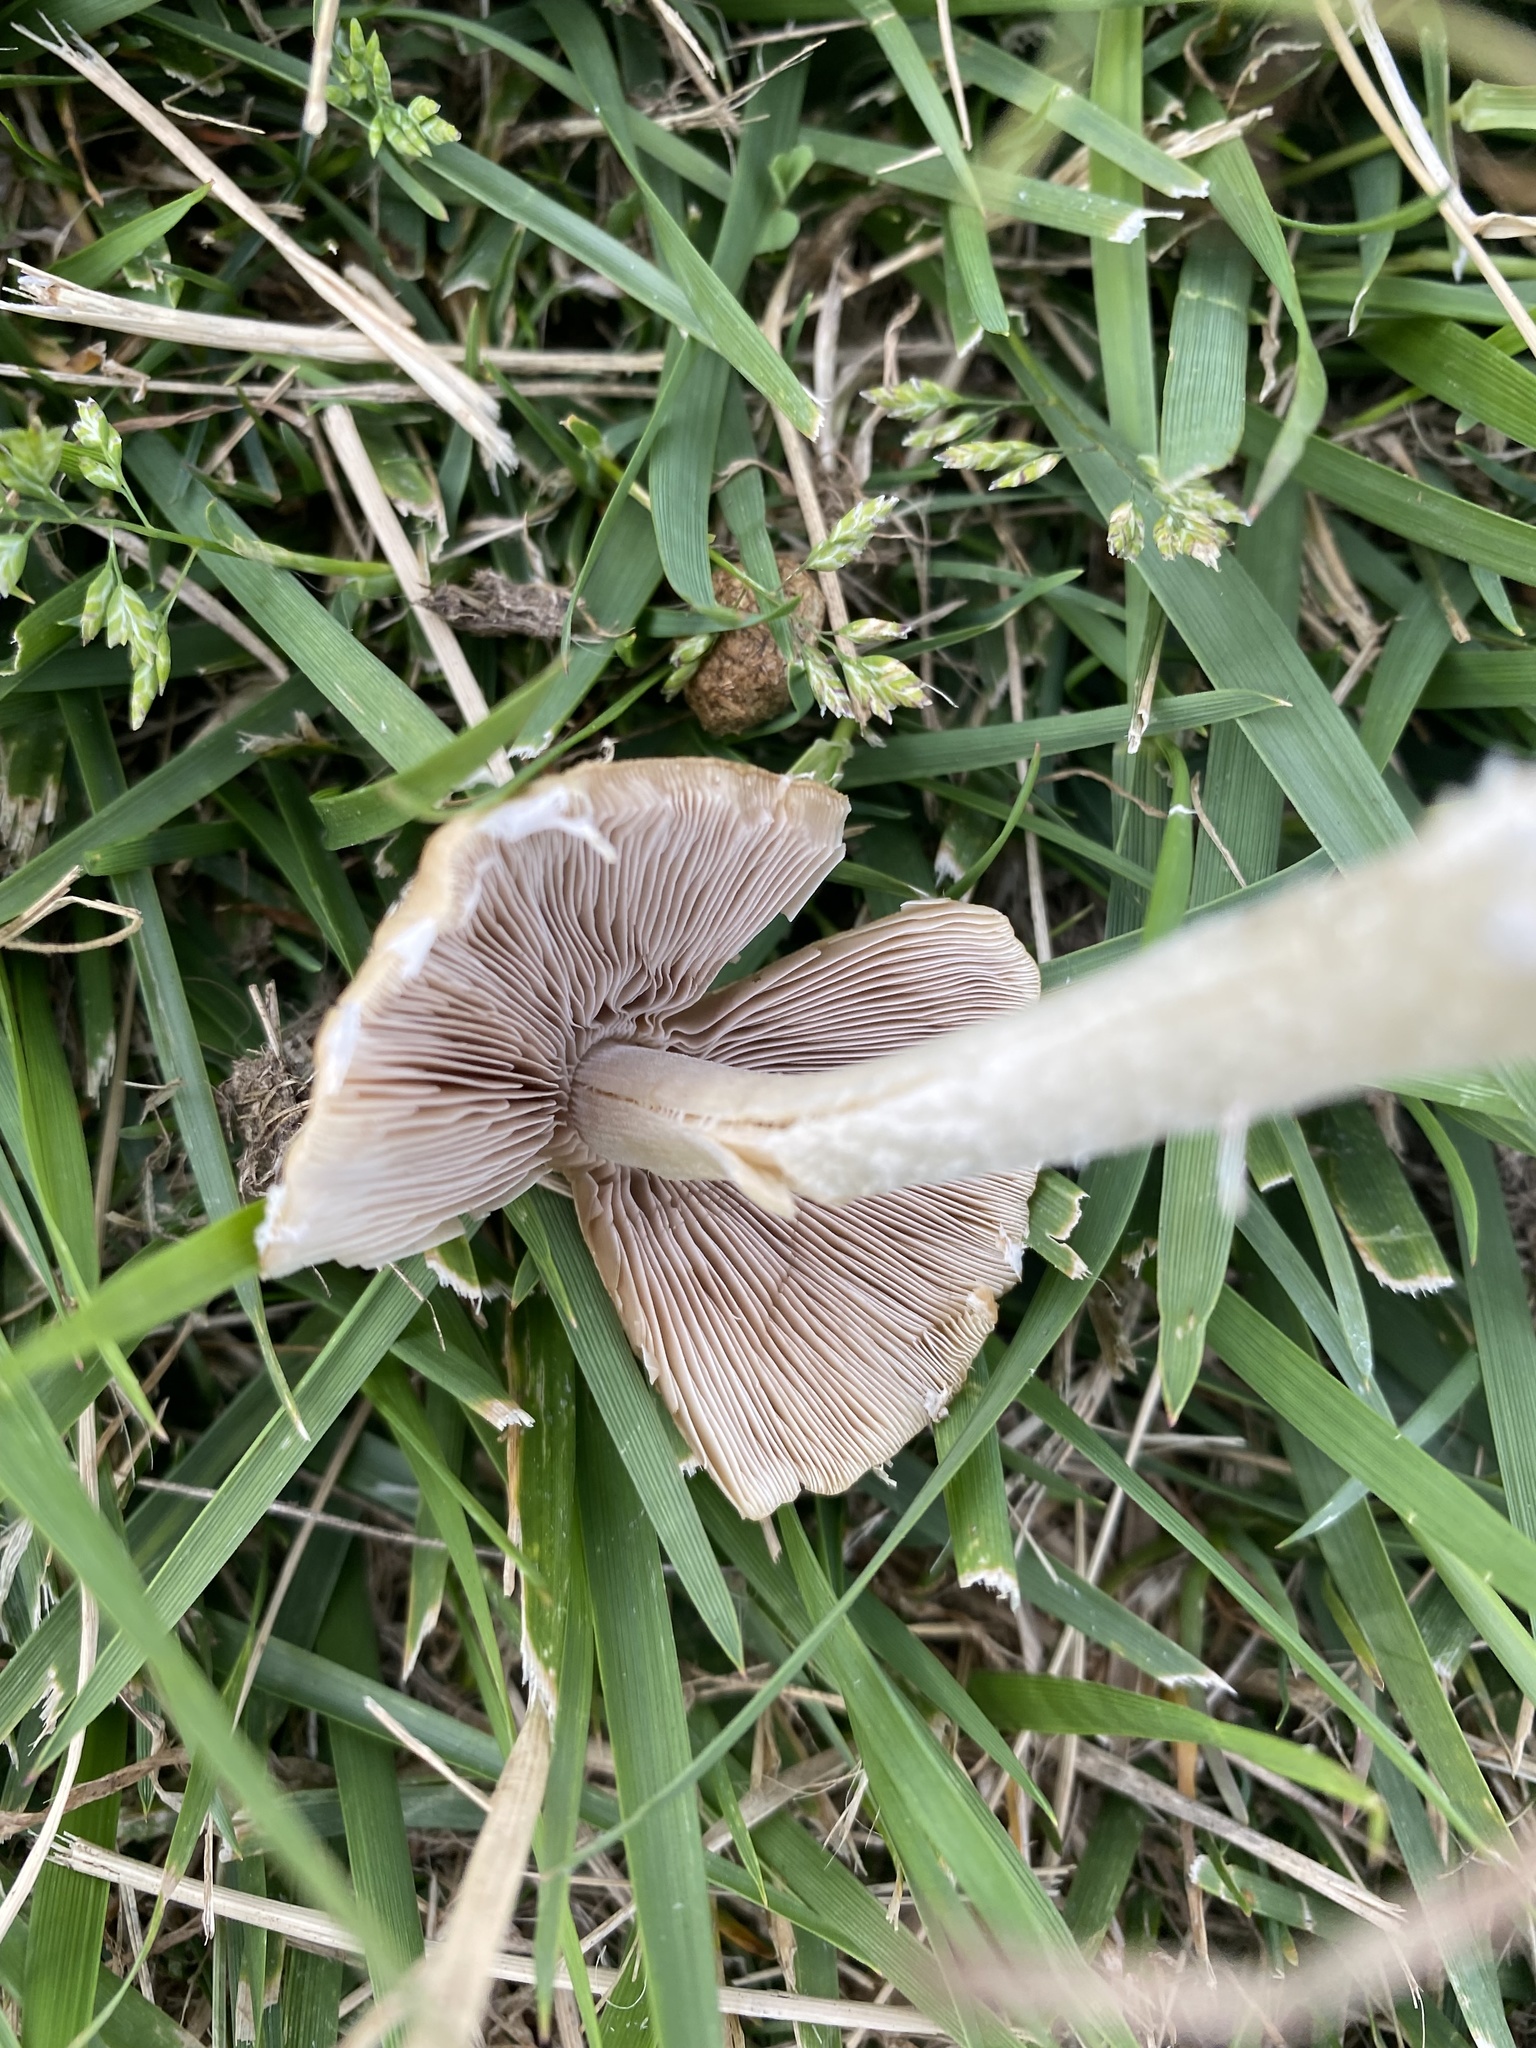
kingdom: Fungi
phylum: Basidiomycota
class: Agaricomycetes
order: Agaricales
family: Psathyrellaceae
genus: Candolleomyces
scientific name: Candolleomyces candolleanus
